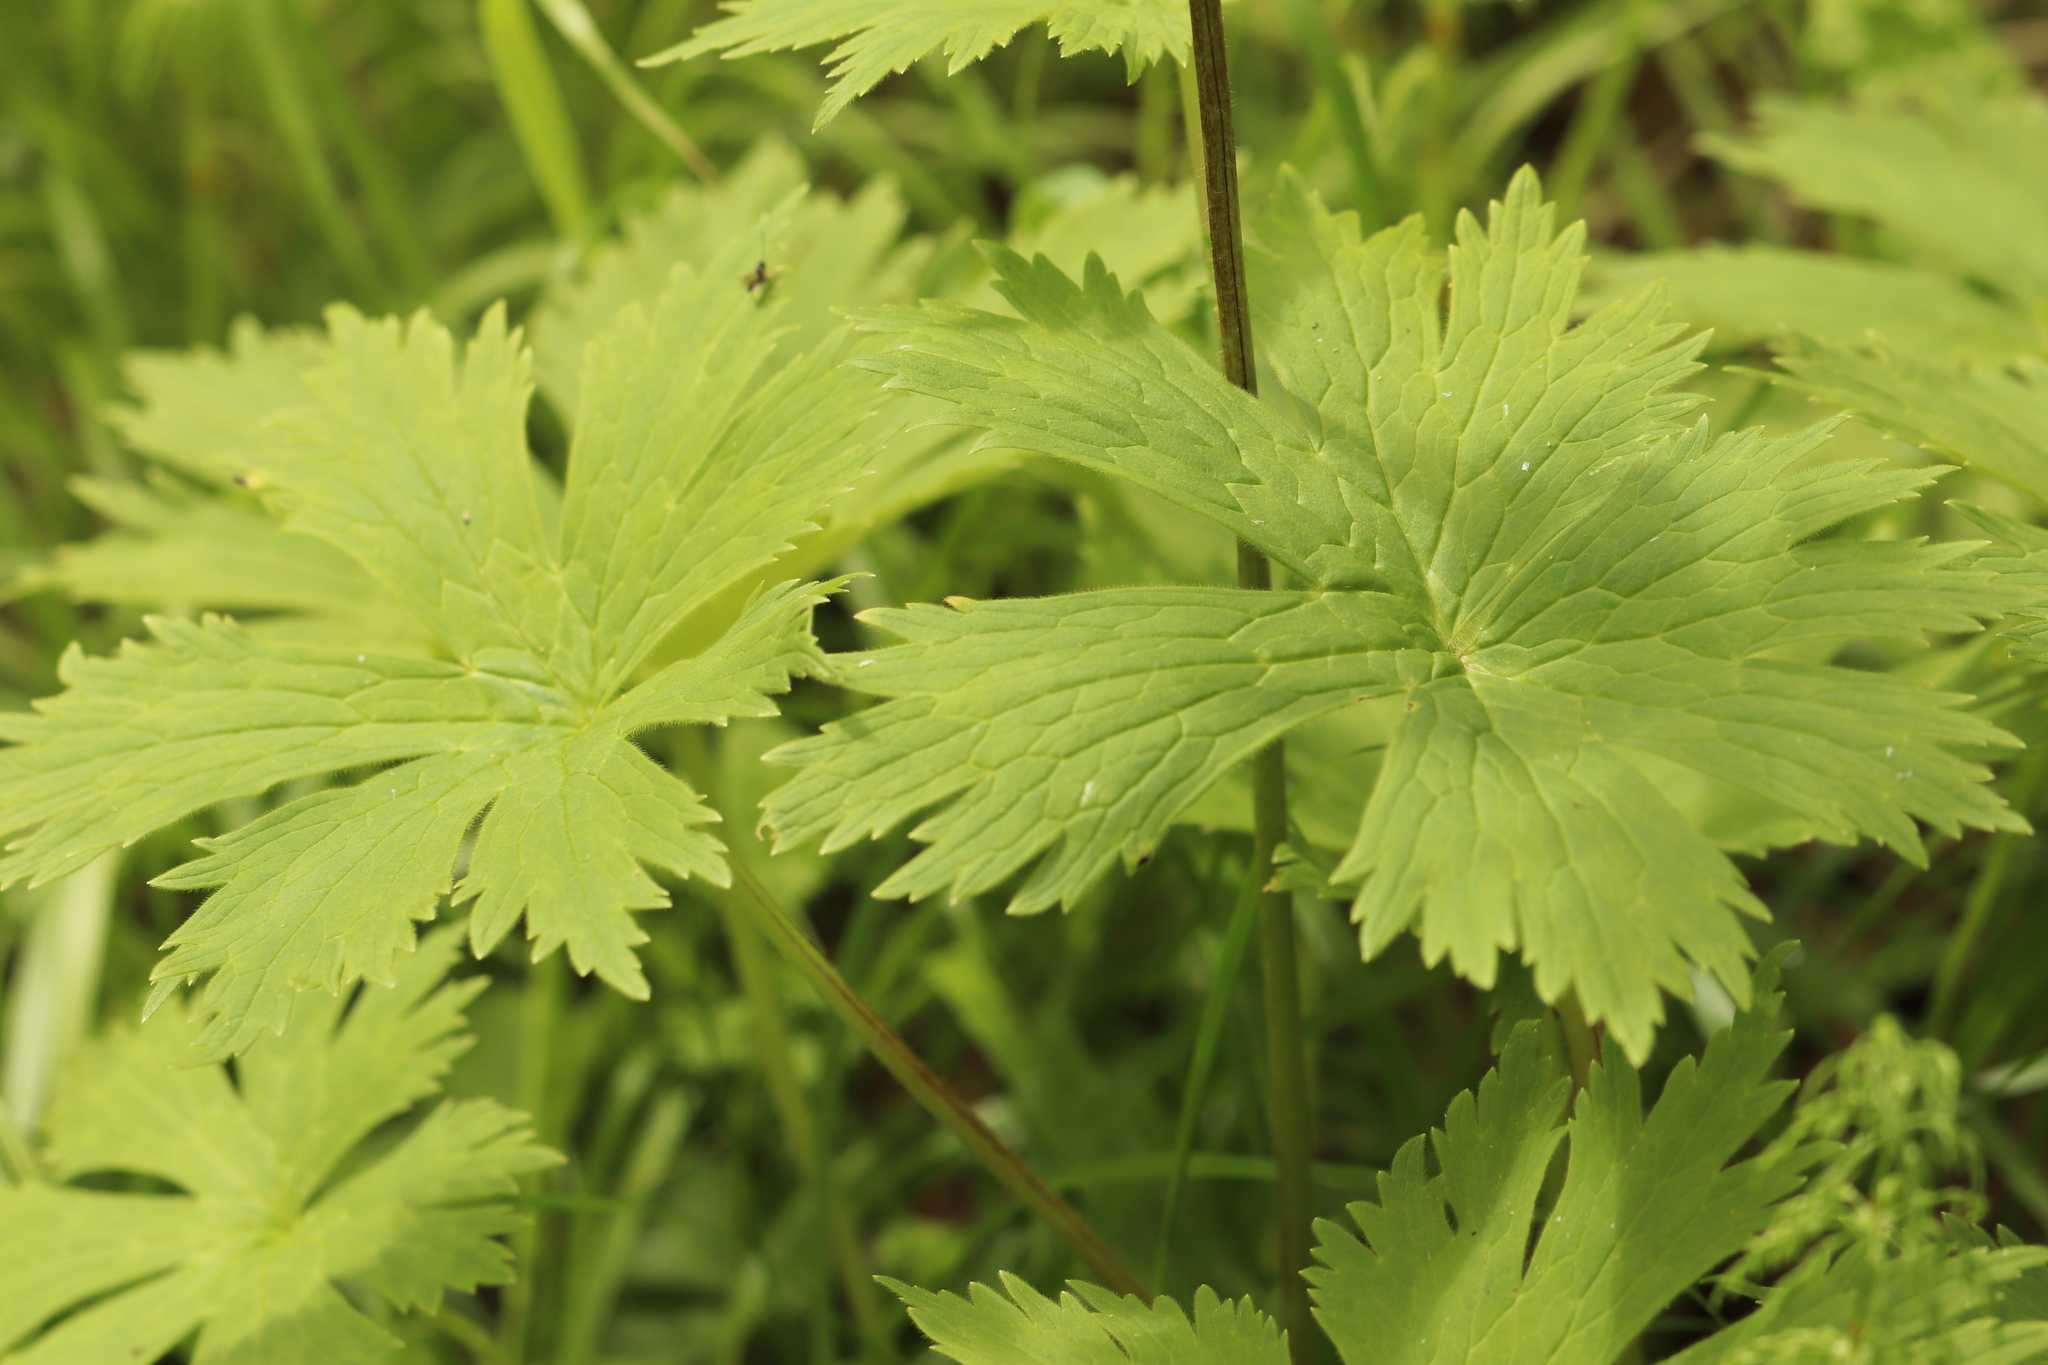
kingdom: Plantae
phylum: Tracheophyta
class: Magnoliopsida
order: Ranunculales
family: Ranunculaceae
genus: Aconitum
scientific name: Aconitum septentrionale
